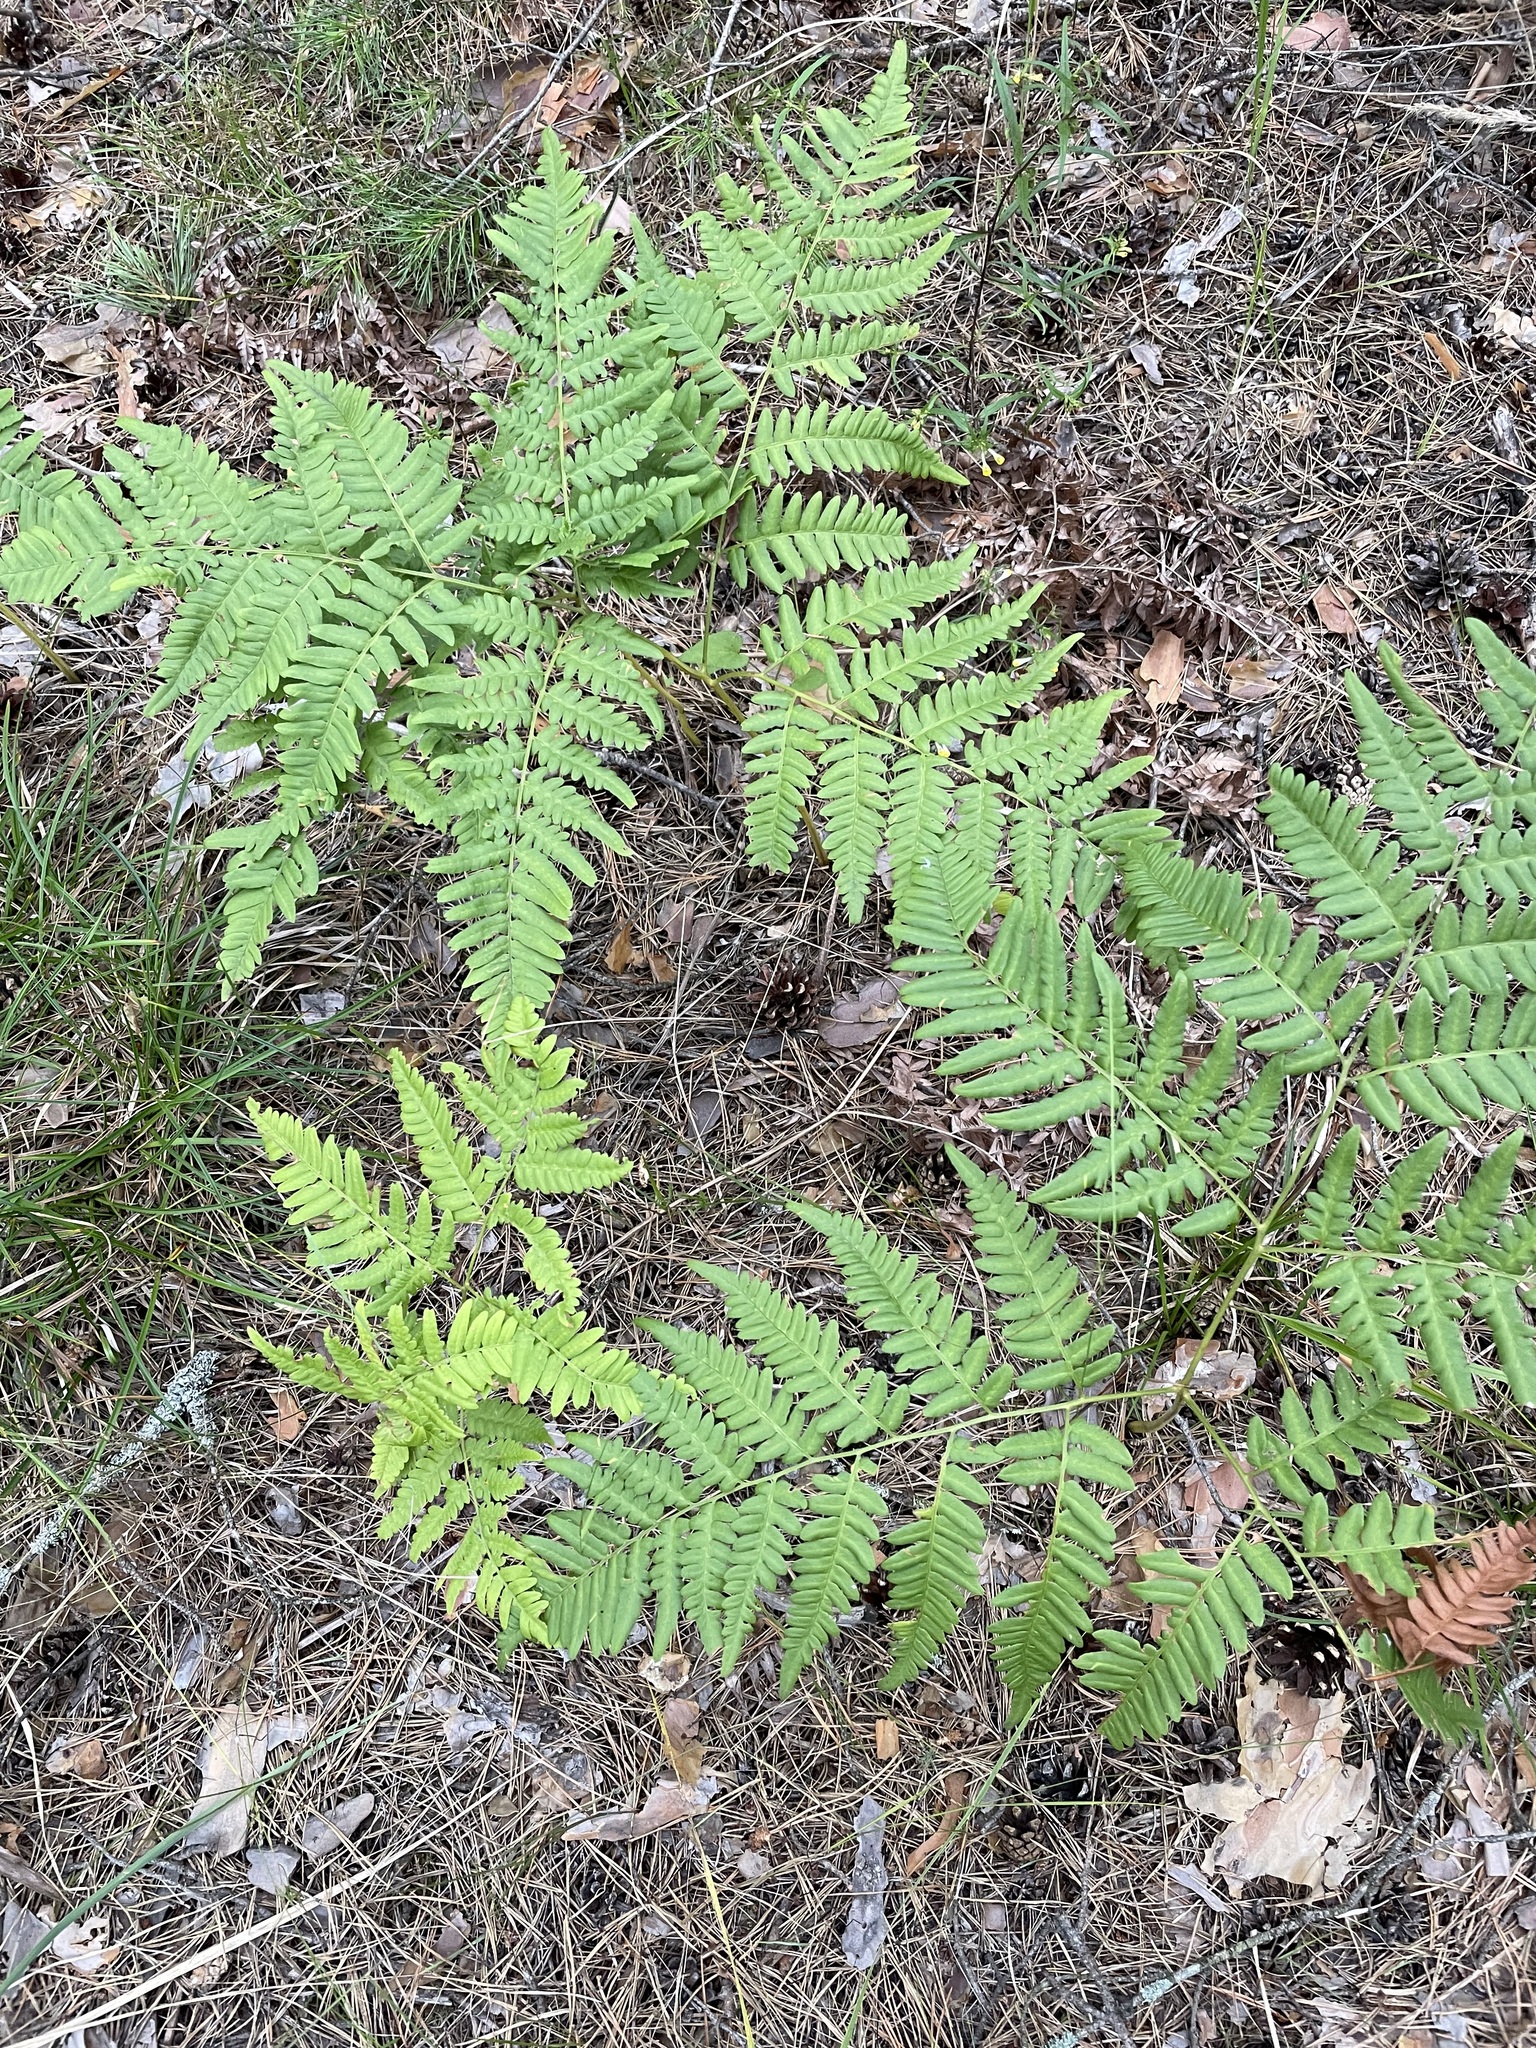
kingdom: Plantae
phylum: Tracheophyta
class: Polypodiopsida
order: Polypodiales
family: Dennstaedtiaceae
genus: Pteridium
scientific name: Pteridium aquilinum
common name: Bracken
